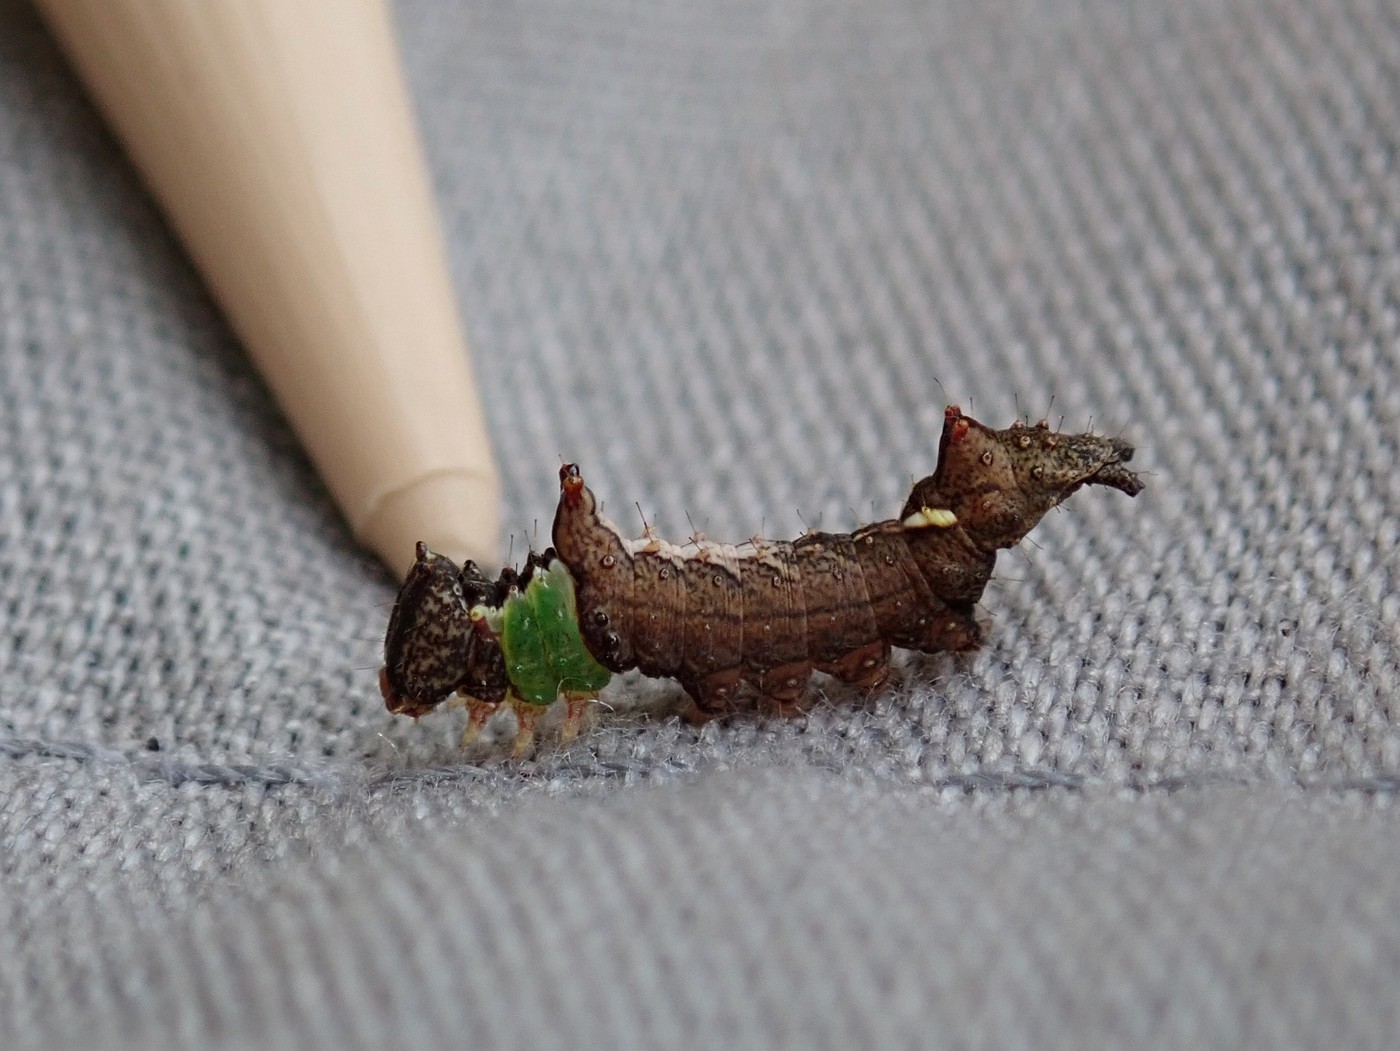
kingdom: Animalia
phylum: Arthropoda
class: Insecta
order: Lepidoptera
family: Notodontidae
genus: Schizura
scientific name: Schizura
